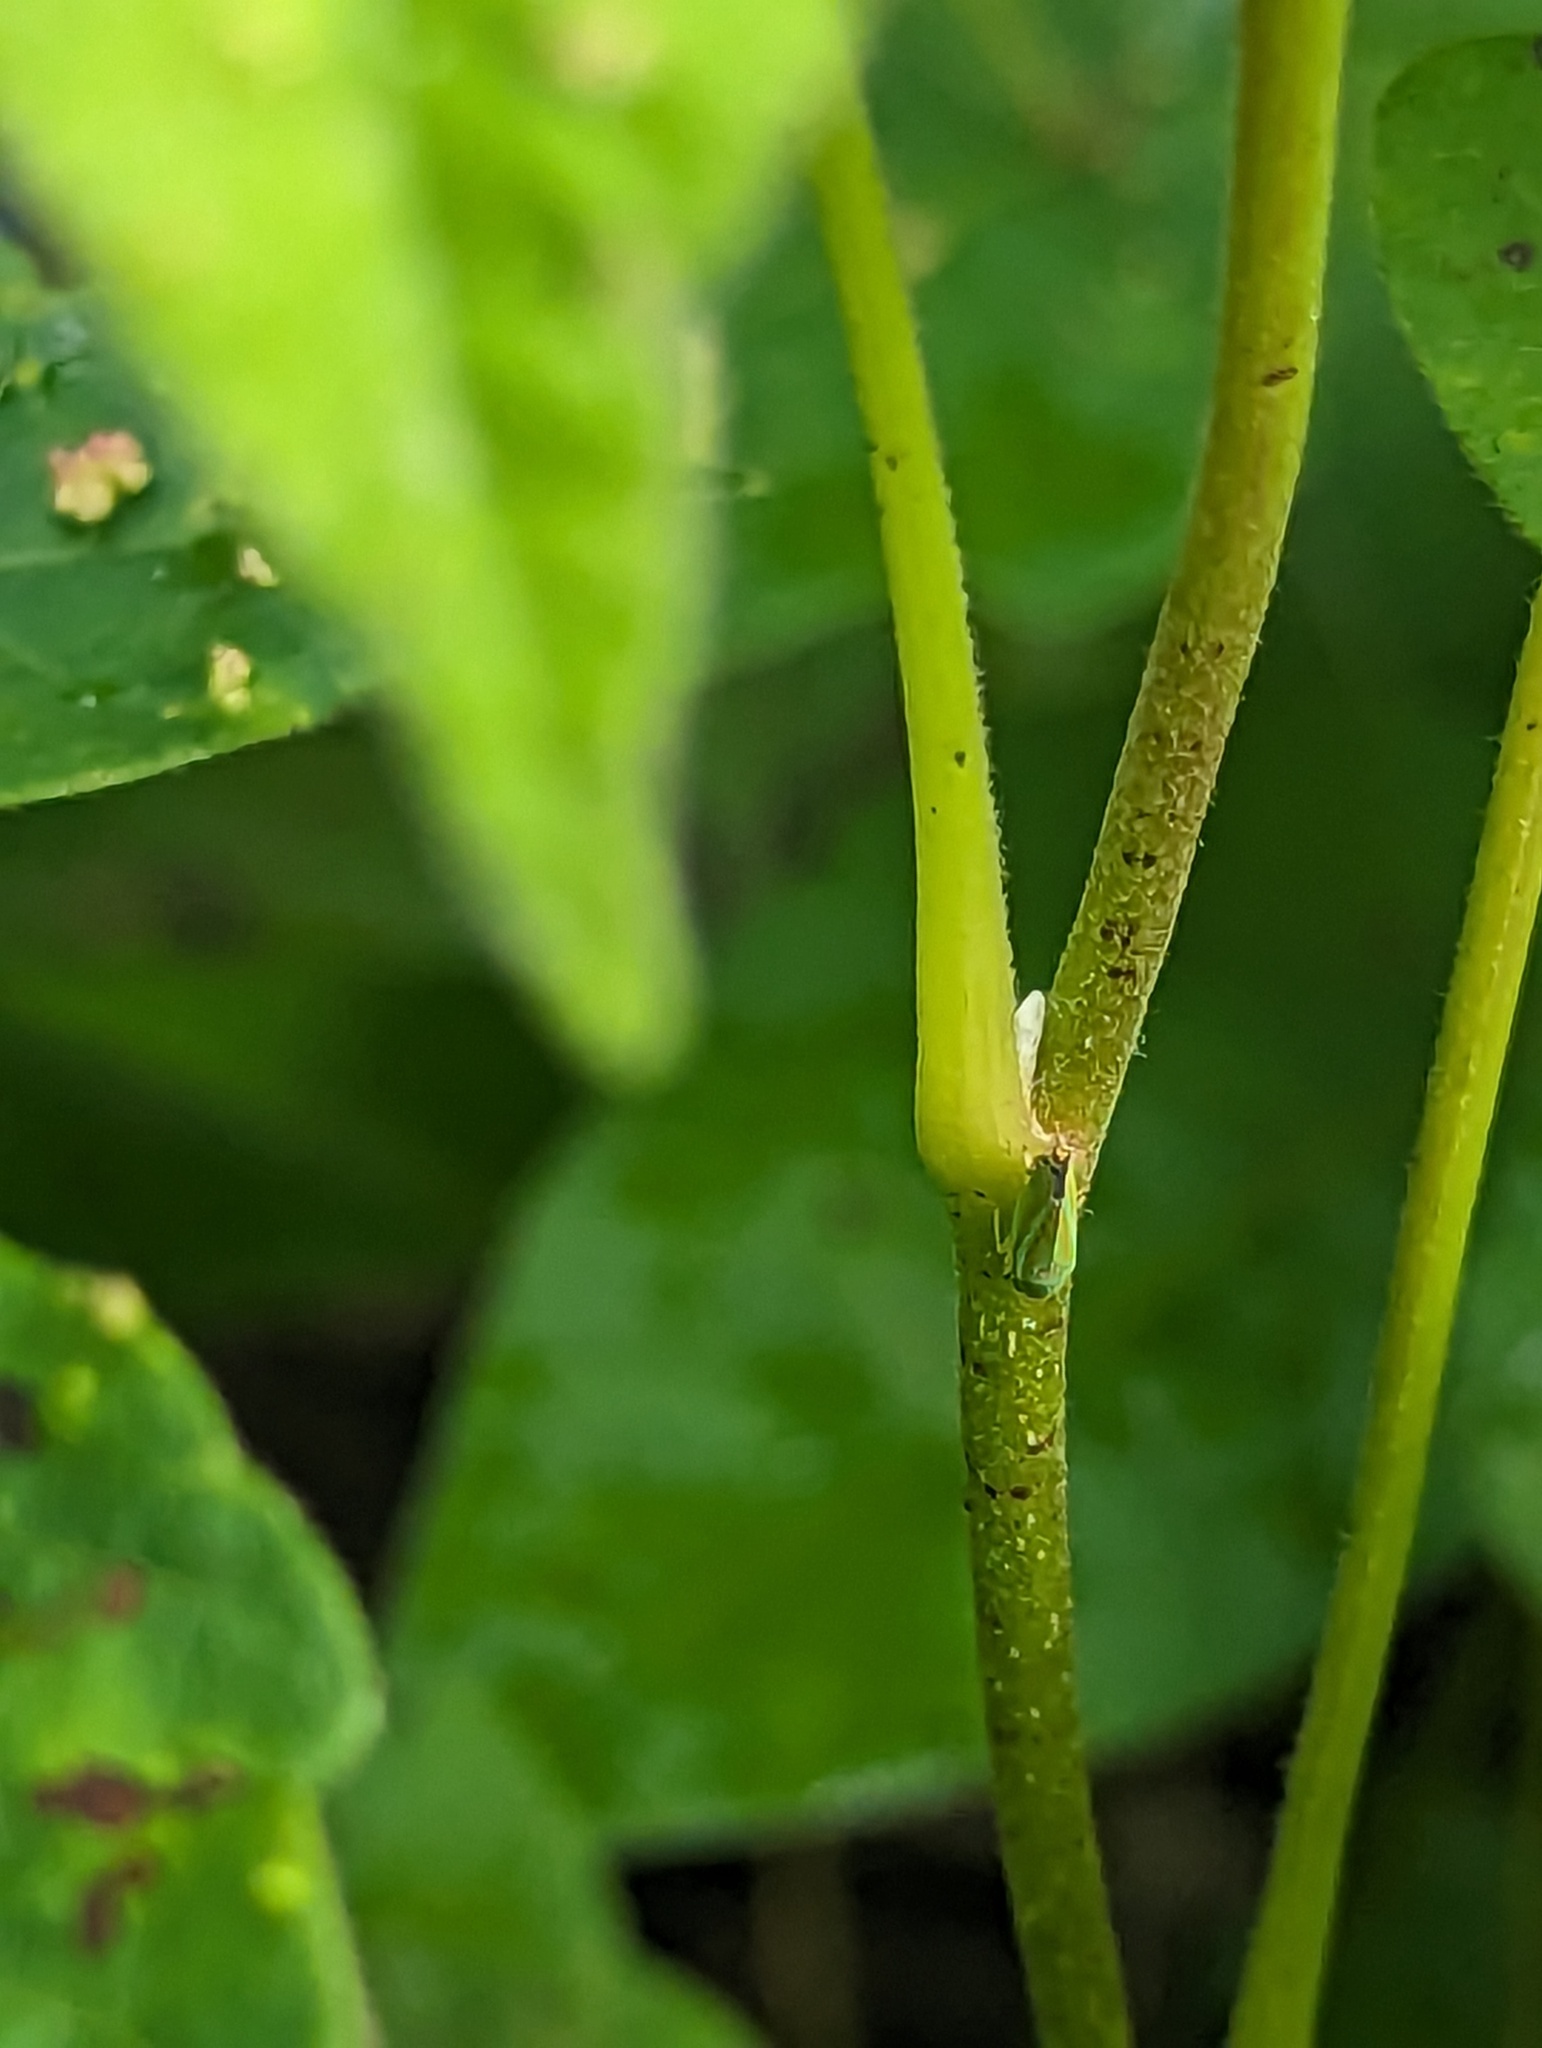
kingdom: Plantae
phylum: Tracheophyta
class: Magnoliopsida
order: Sapindales
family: Anacardiaceae
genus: Toxicodendron
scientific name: Toxicodendron radicans
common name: Poison ivy
